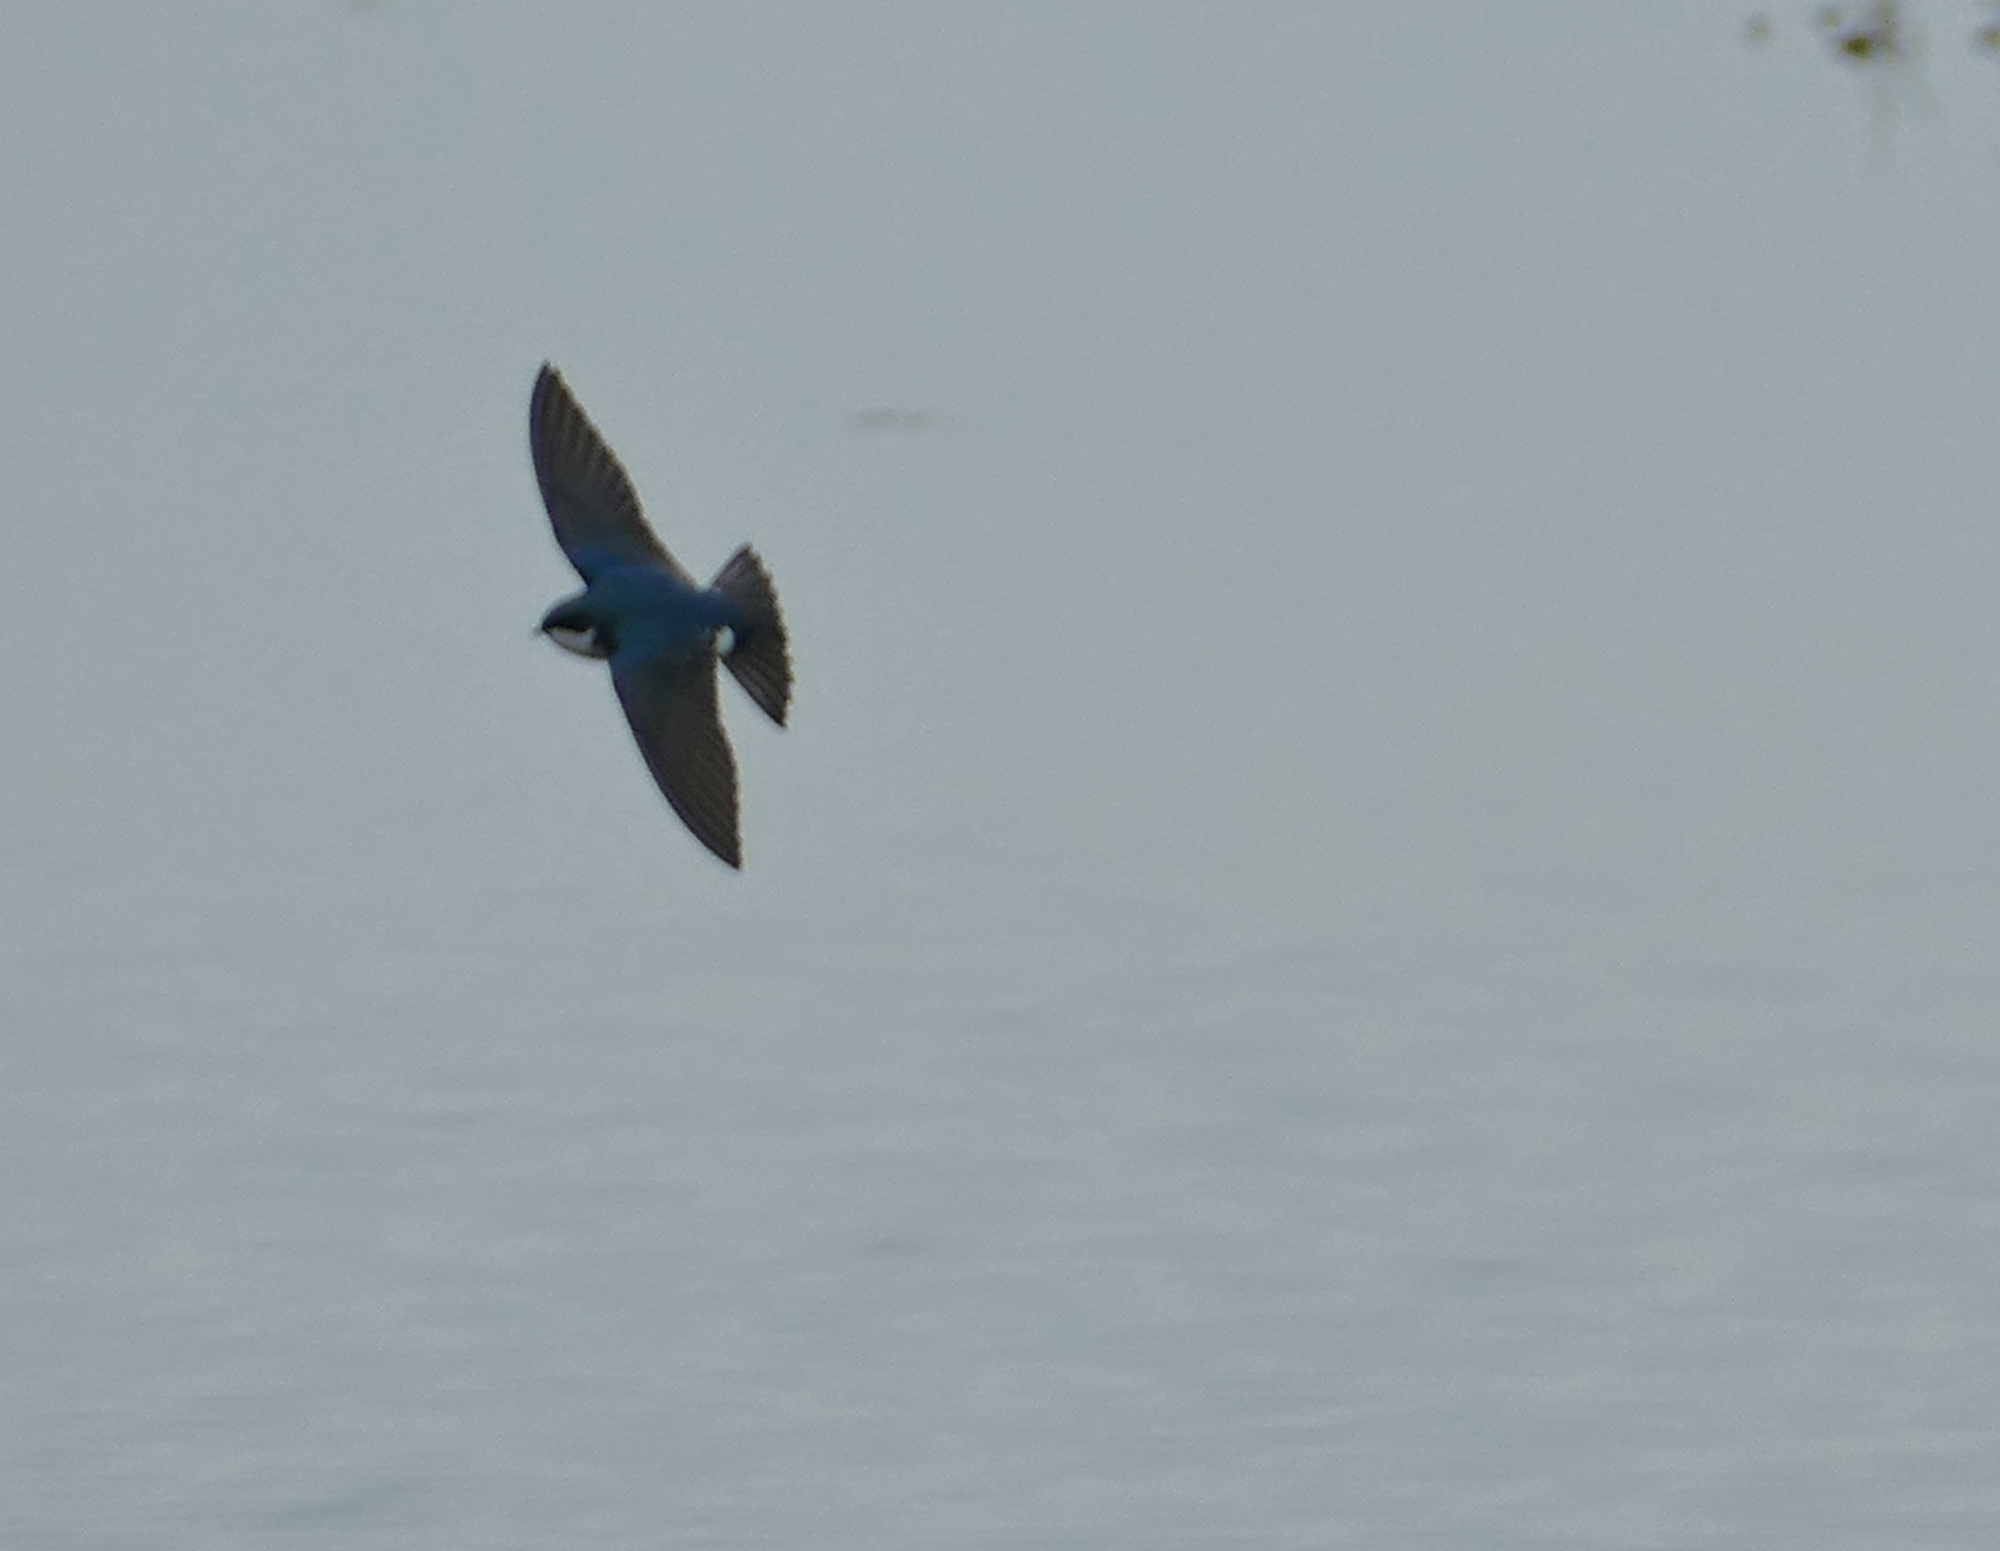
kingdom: Animalia
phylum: Chordata
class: Aves
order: Passeriformes
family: Hirundinidae
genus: Tachycineta
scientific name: Tachycineta bicolor
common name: Tree swallow
